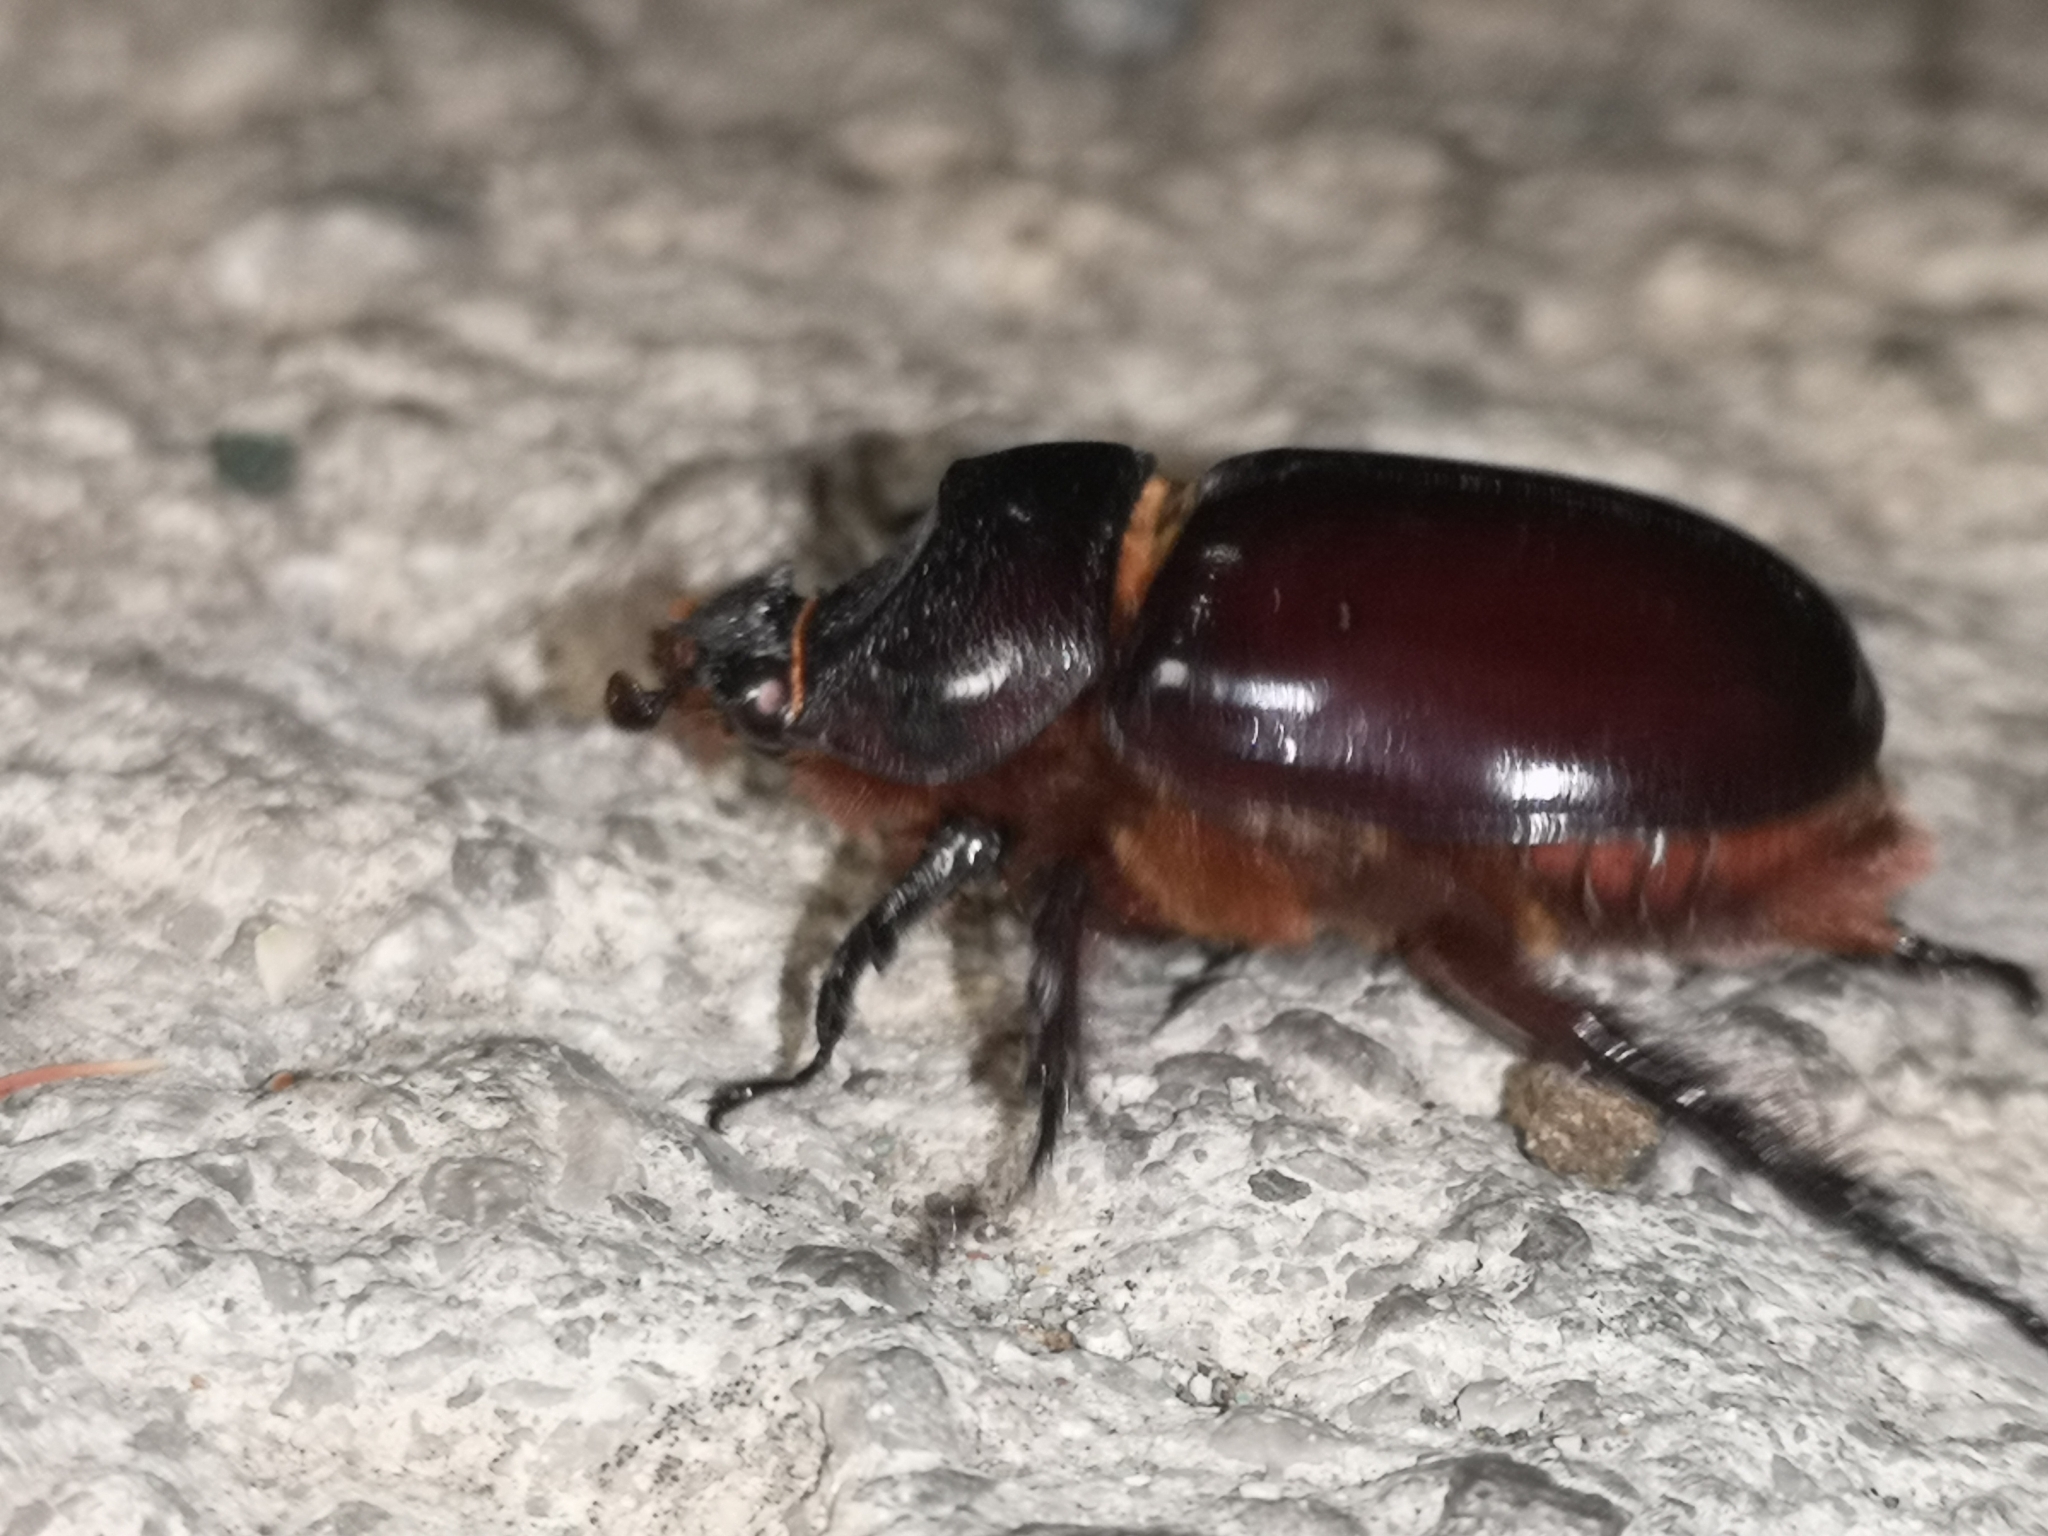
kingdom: Animalia
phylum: Arthropoda
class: Insecta
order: Coleoptera
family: Scarabaeidae
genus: Oryctes
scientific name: Oryctes nasicornis
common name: European rhinoceros beetle
